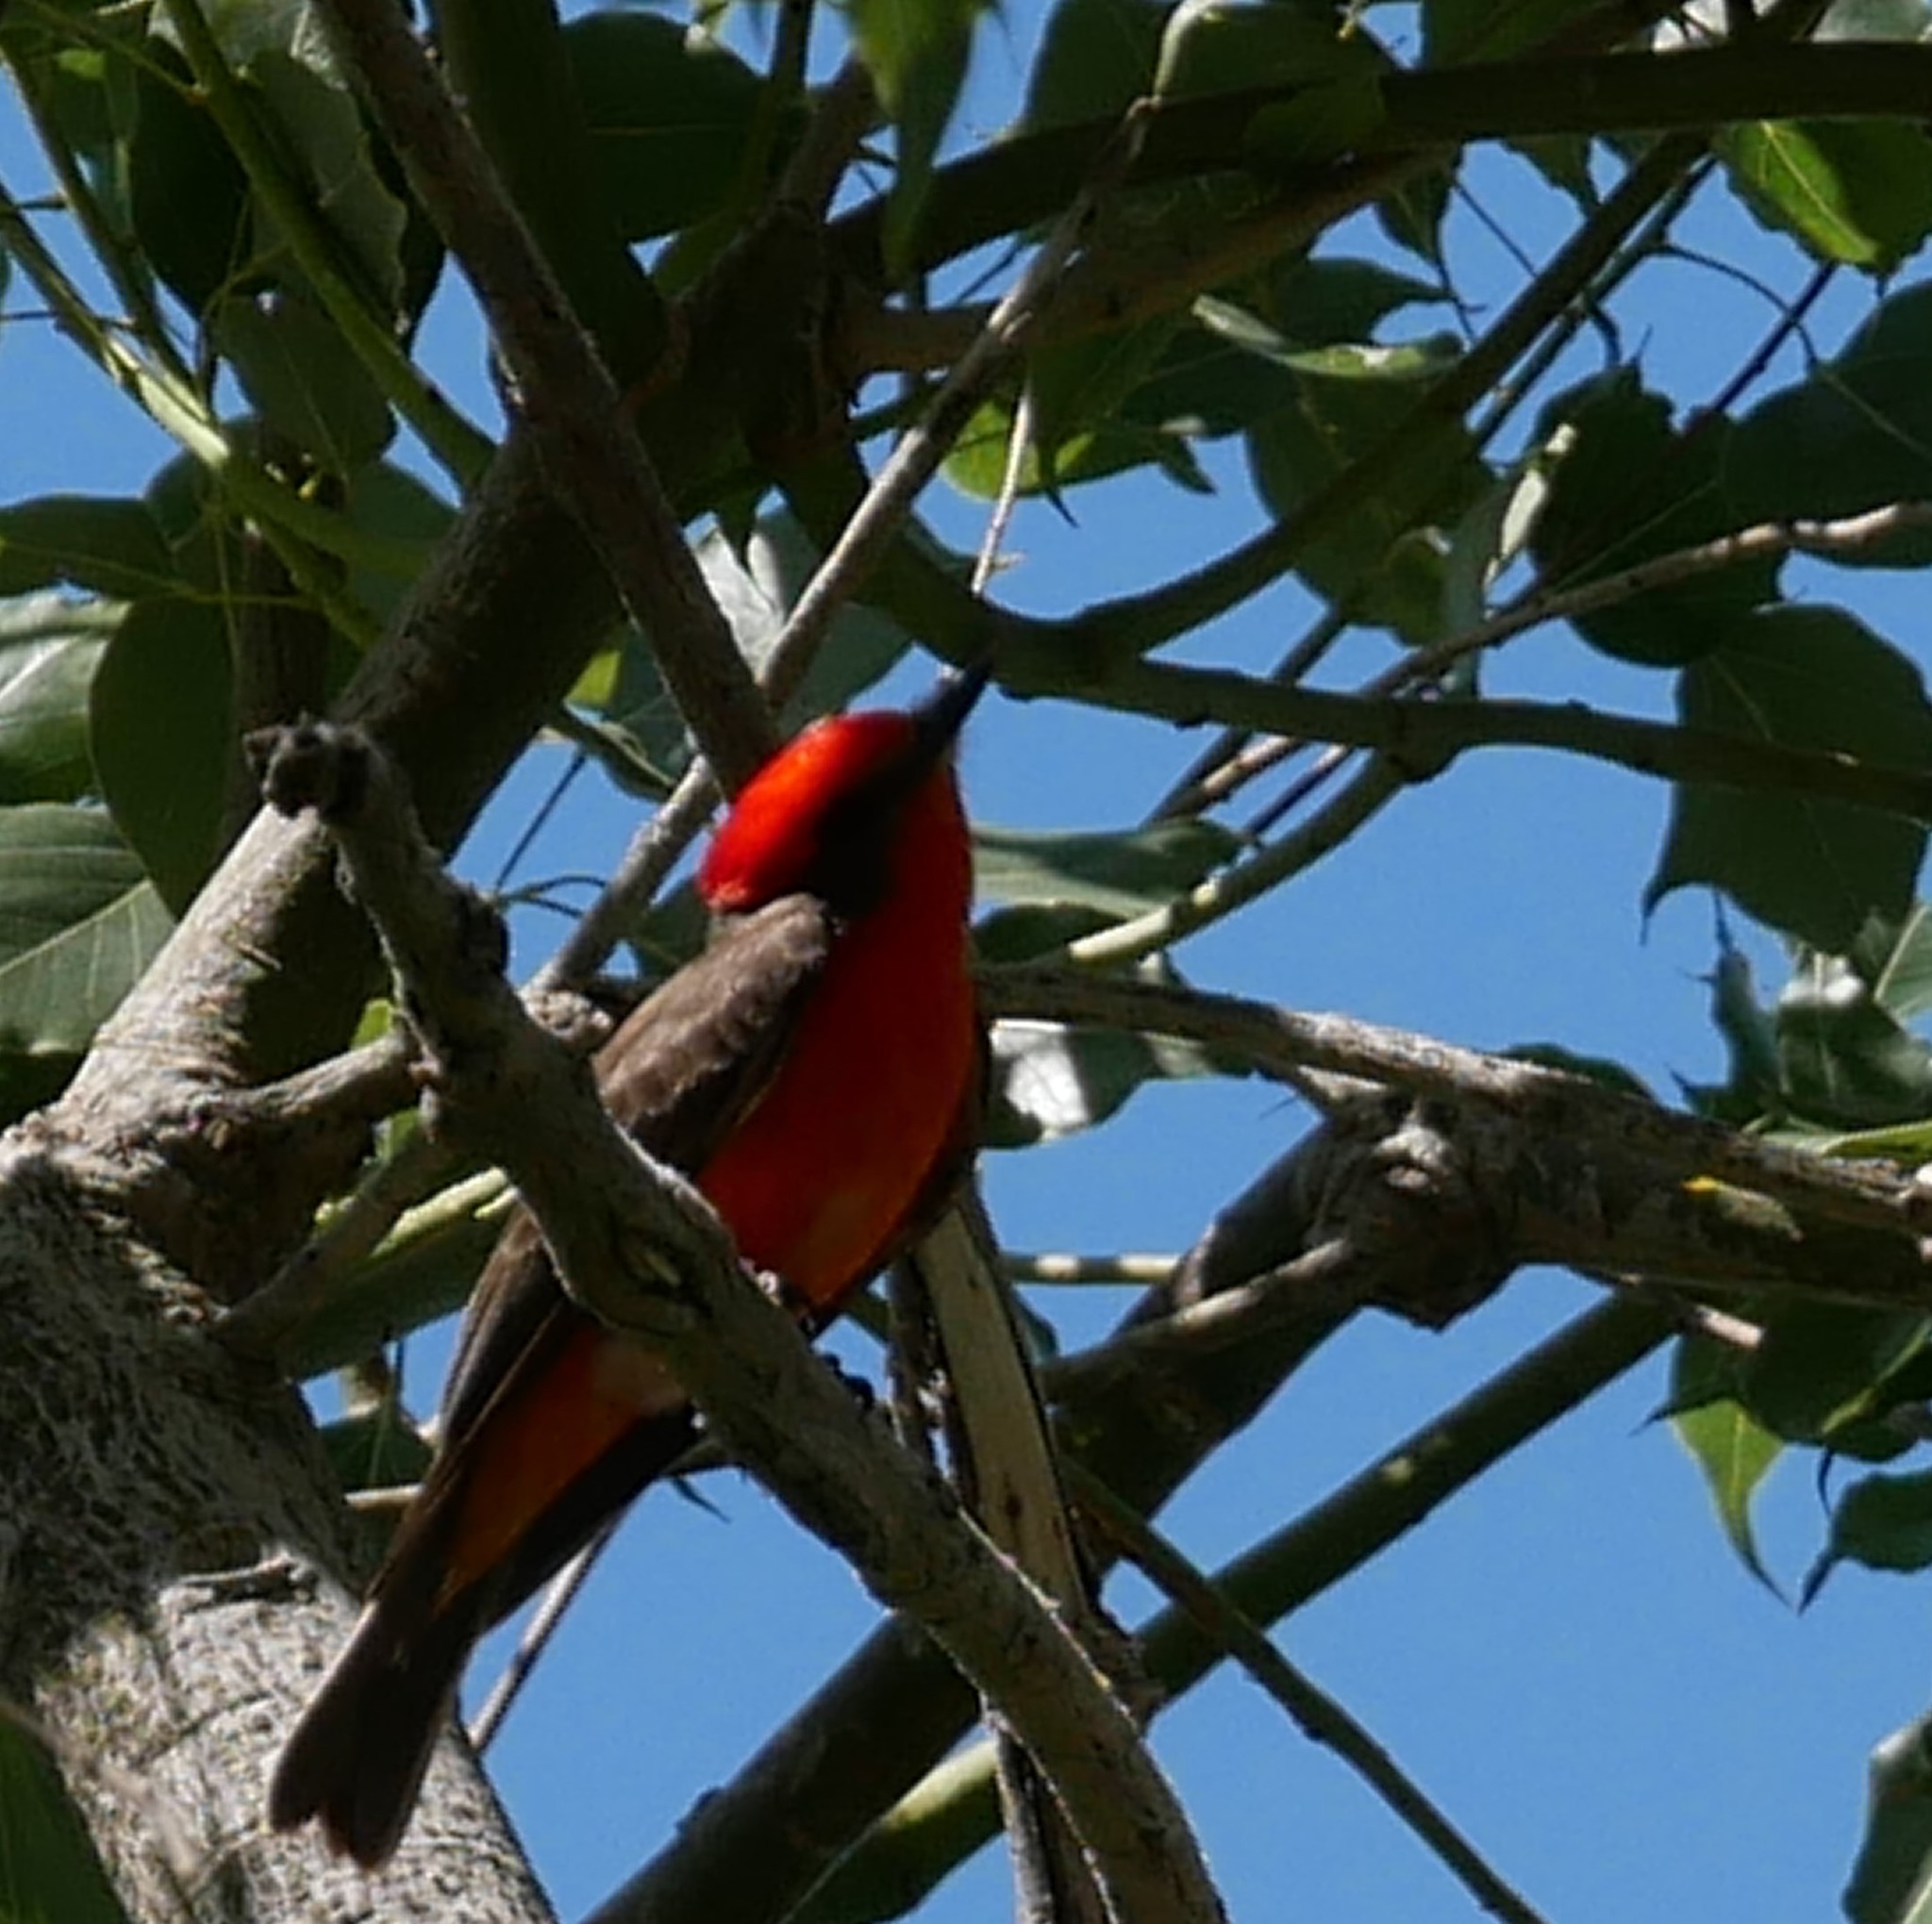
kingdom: Animalia
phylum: Chordata
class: Aves
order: Passeriformes
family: Tyrannidae
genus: Pyrocephalus
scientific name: Pyrocephalus rubinus
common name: Vermilion flycatcher
